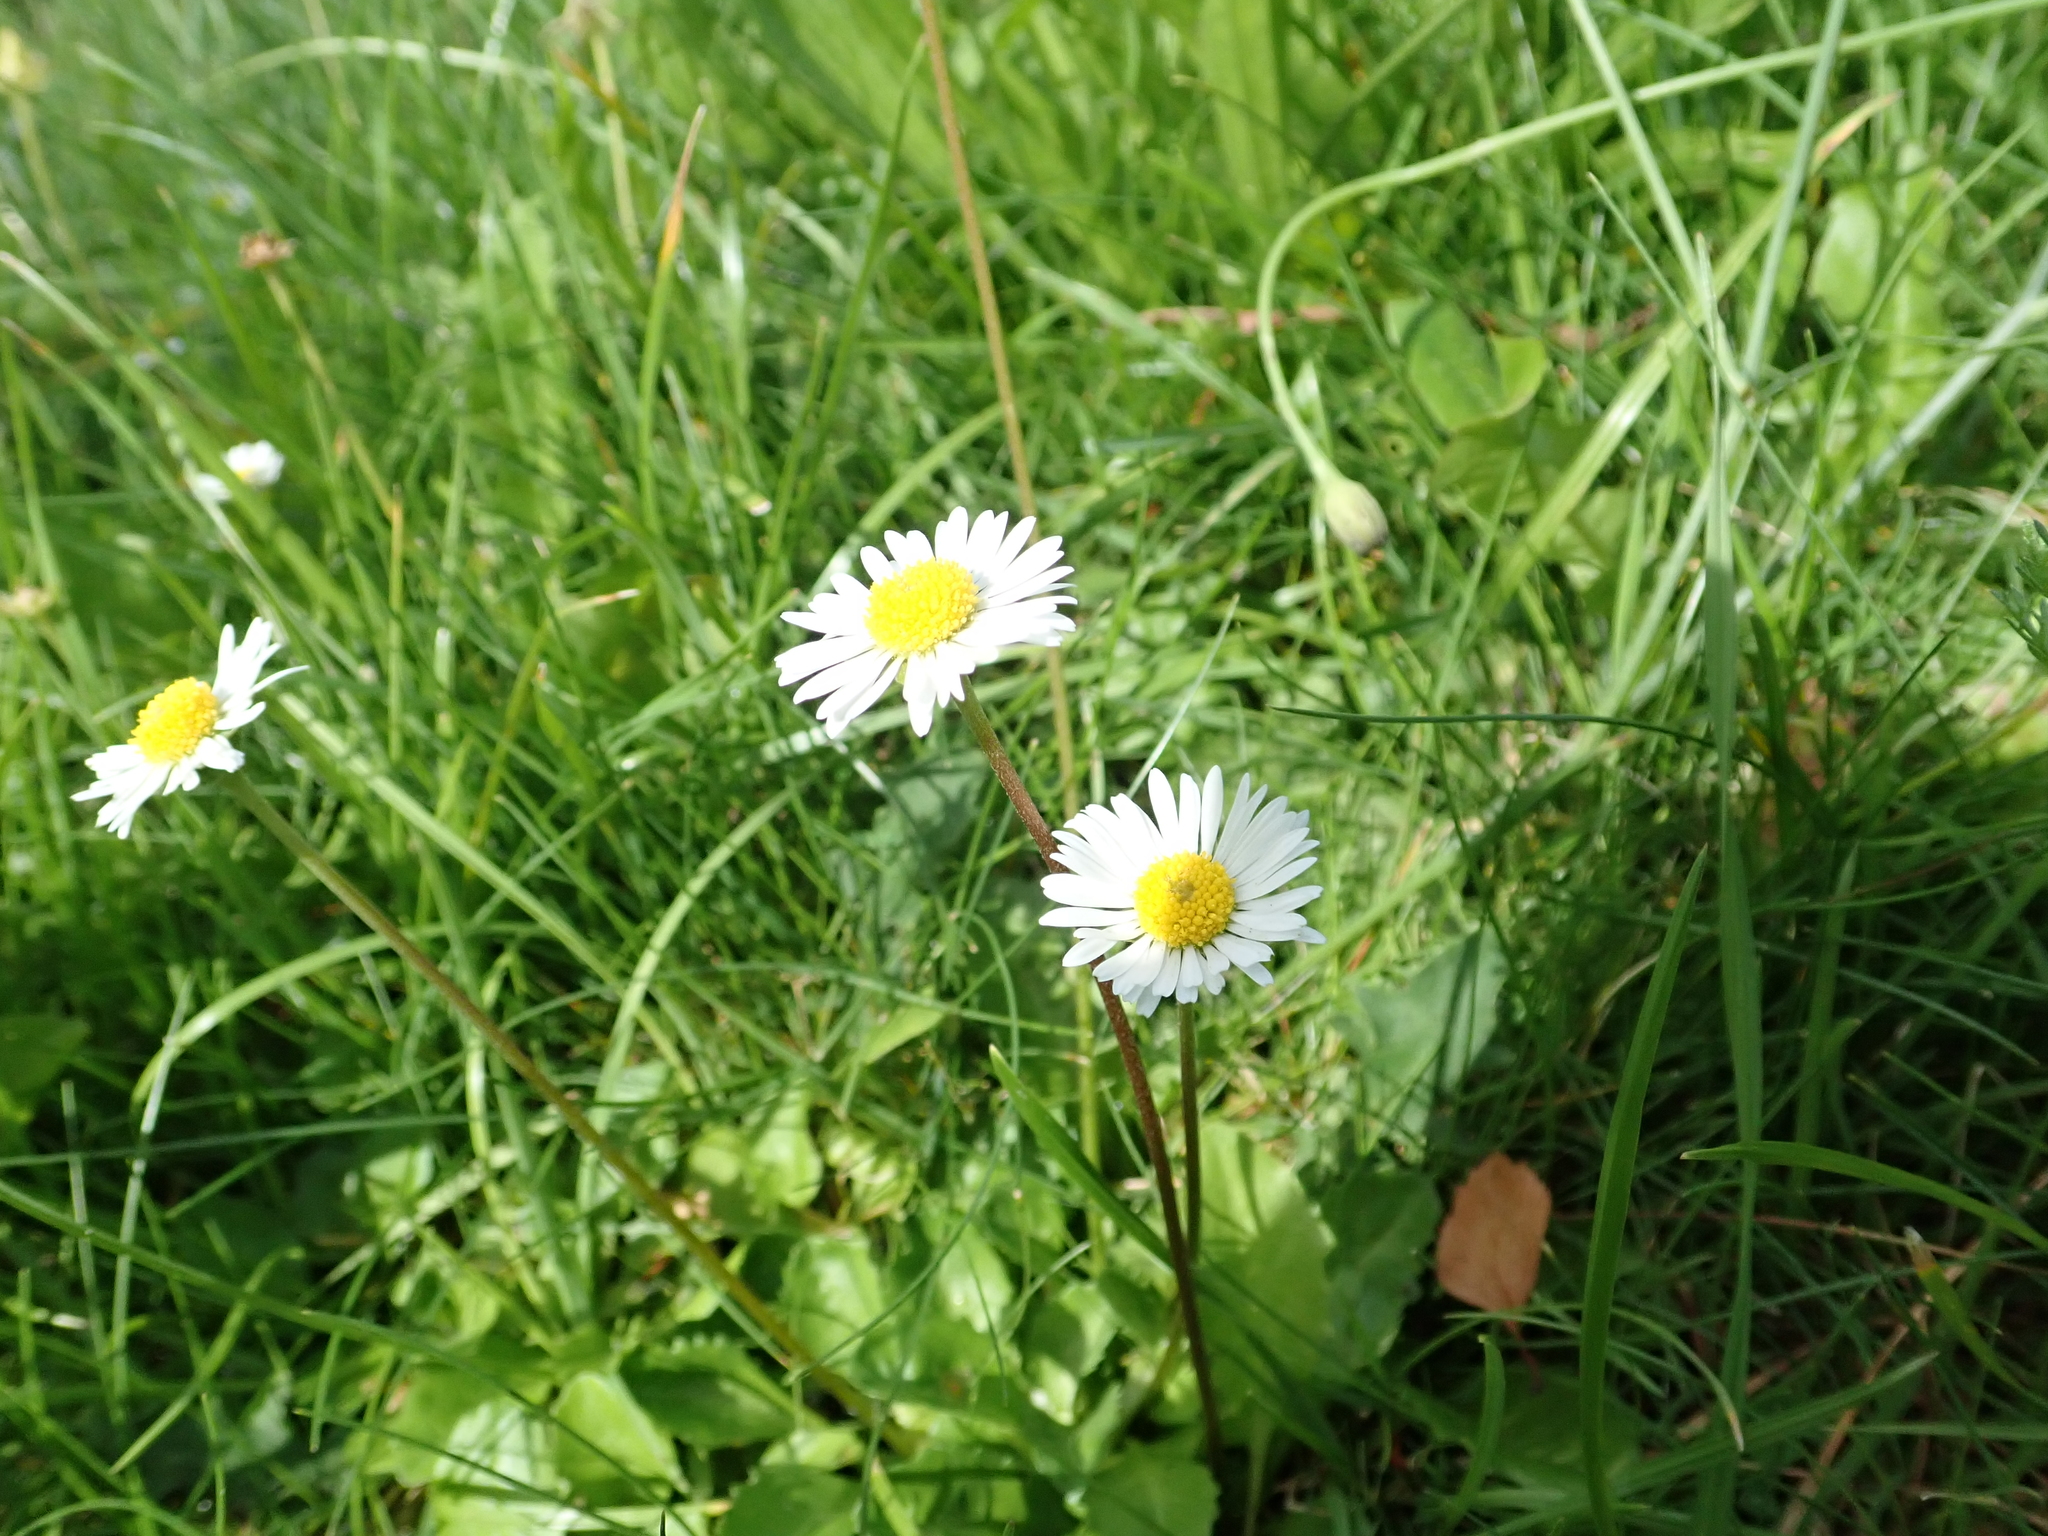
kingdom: Plantae
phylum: Tracheophyta
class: Magnoliopsida
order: Asterales
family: Asteraceae
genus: Bellis
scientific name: Bellis perennis
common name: Lawndaisy
